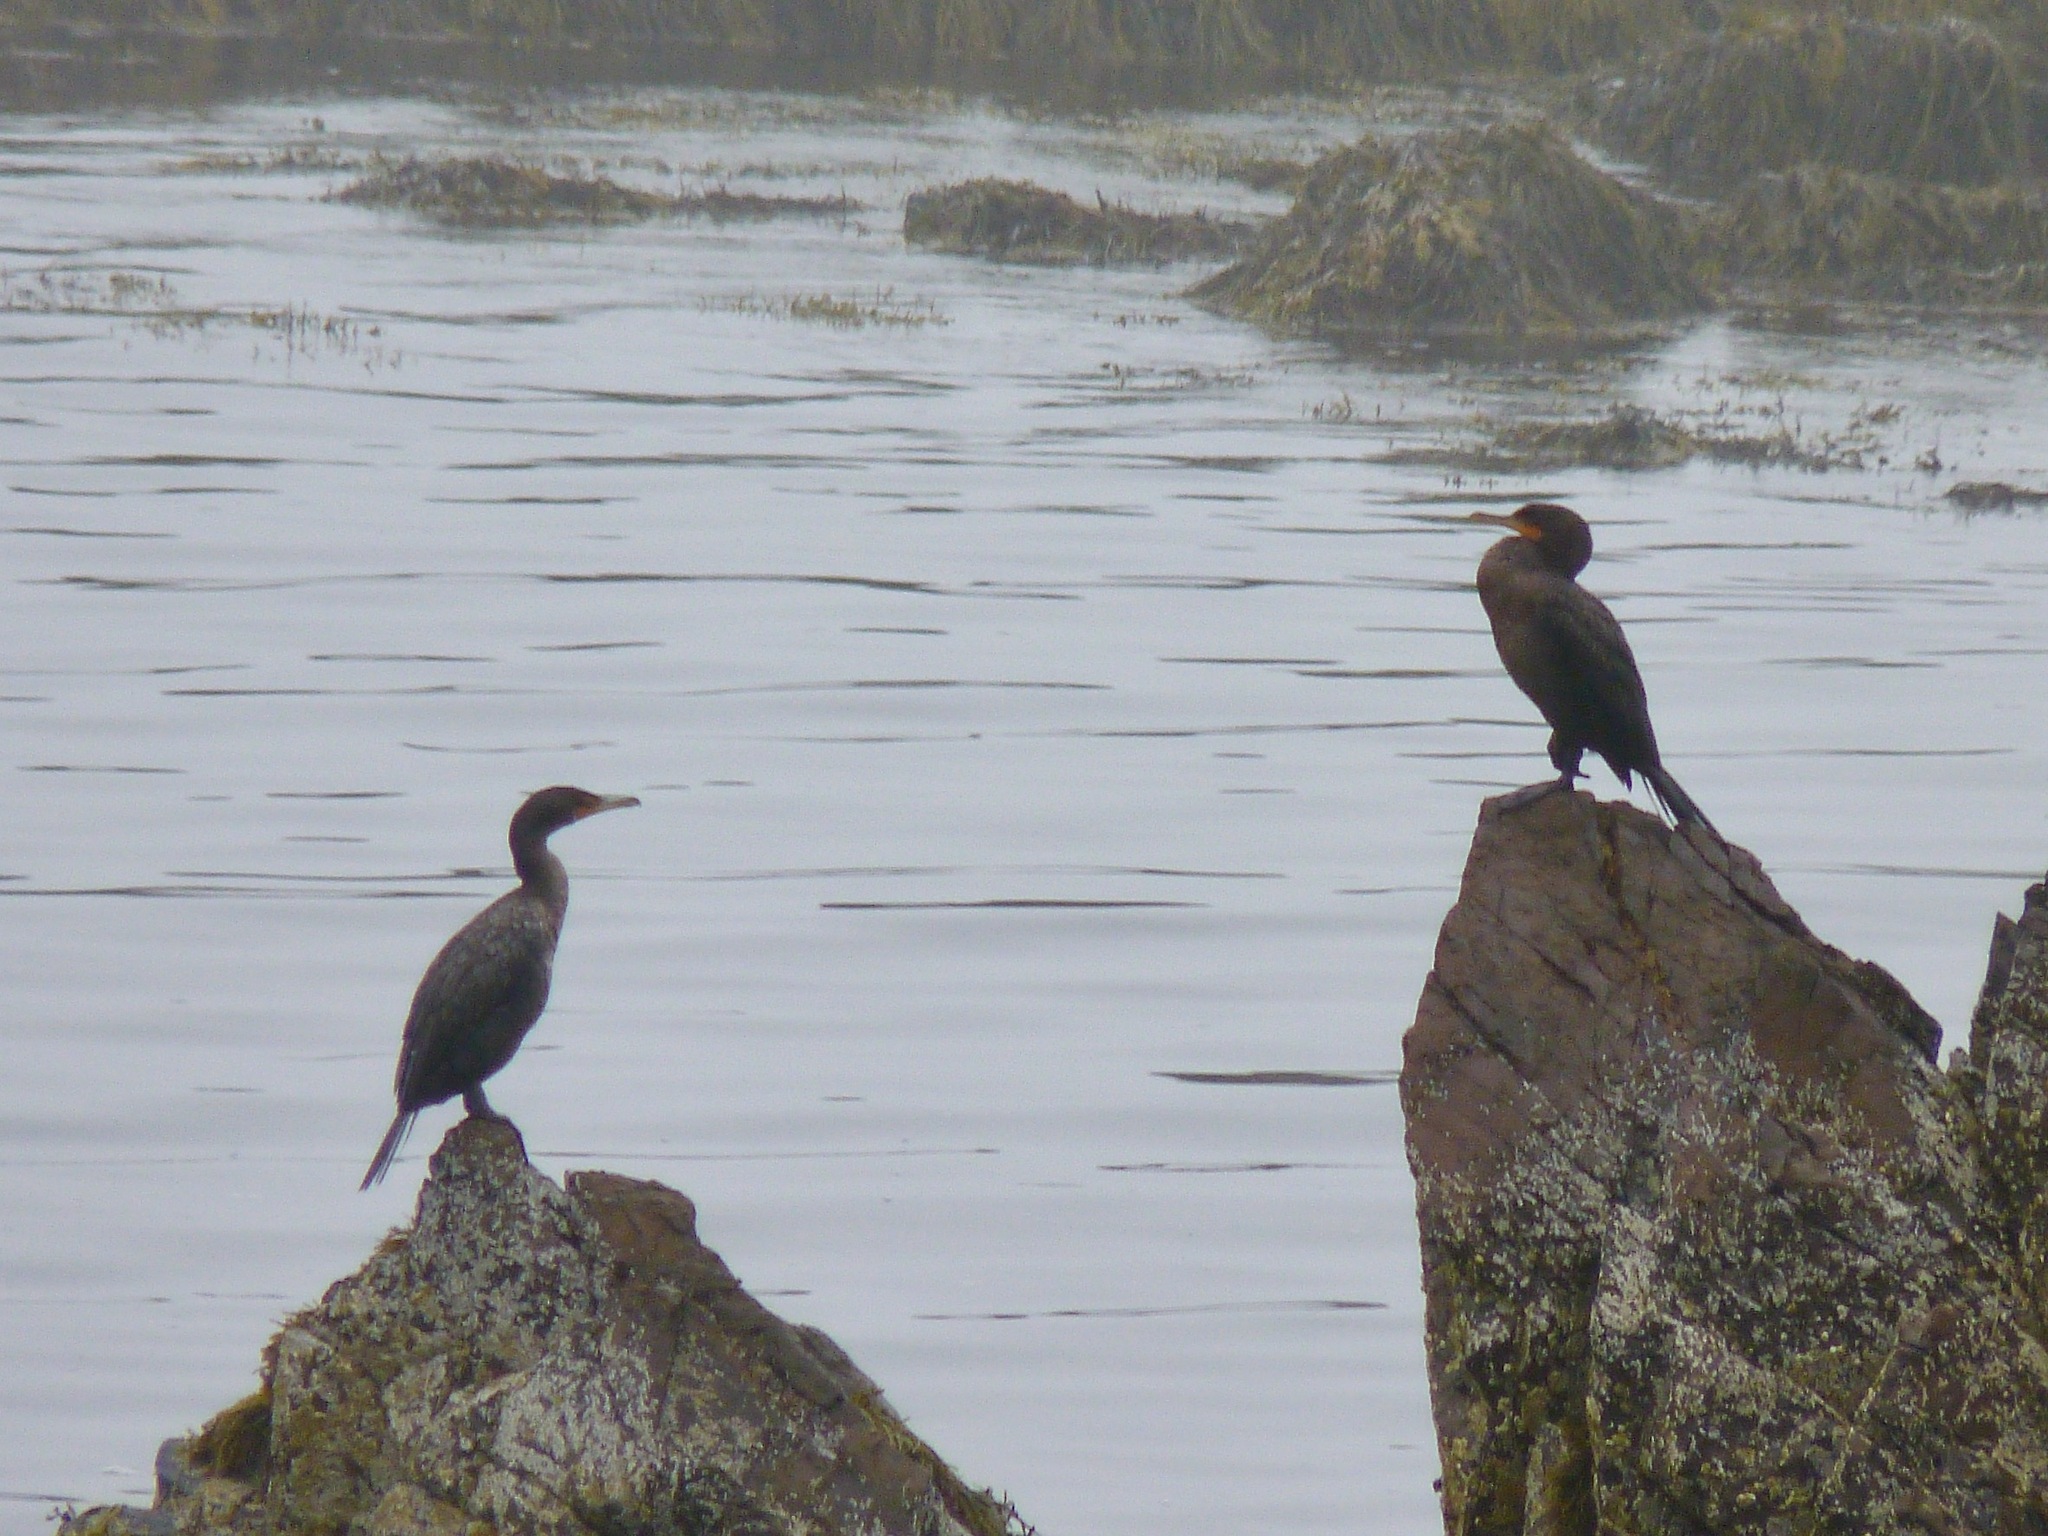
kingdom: Animalia
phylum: Chordata
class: Aves
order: Suliformes
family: Phalacrocoracidae
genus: Phalacrocorax
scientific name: Phalacrocorax auritus
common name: Double-crested cormorant
